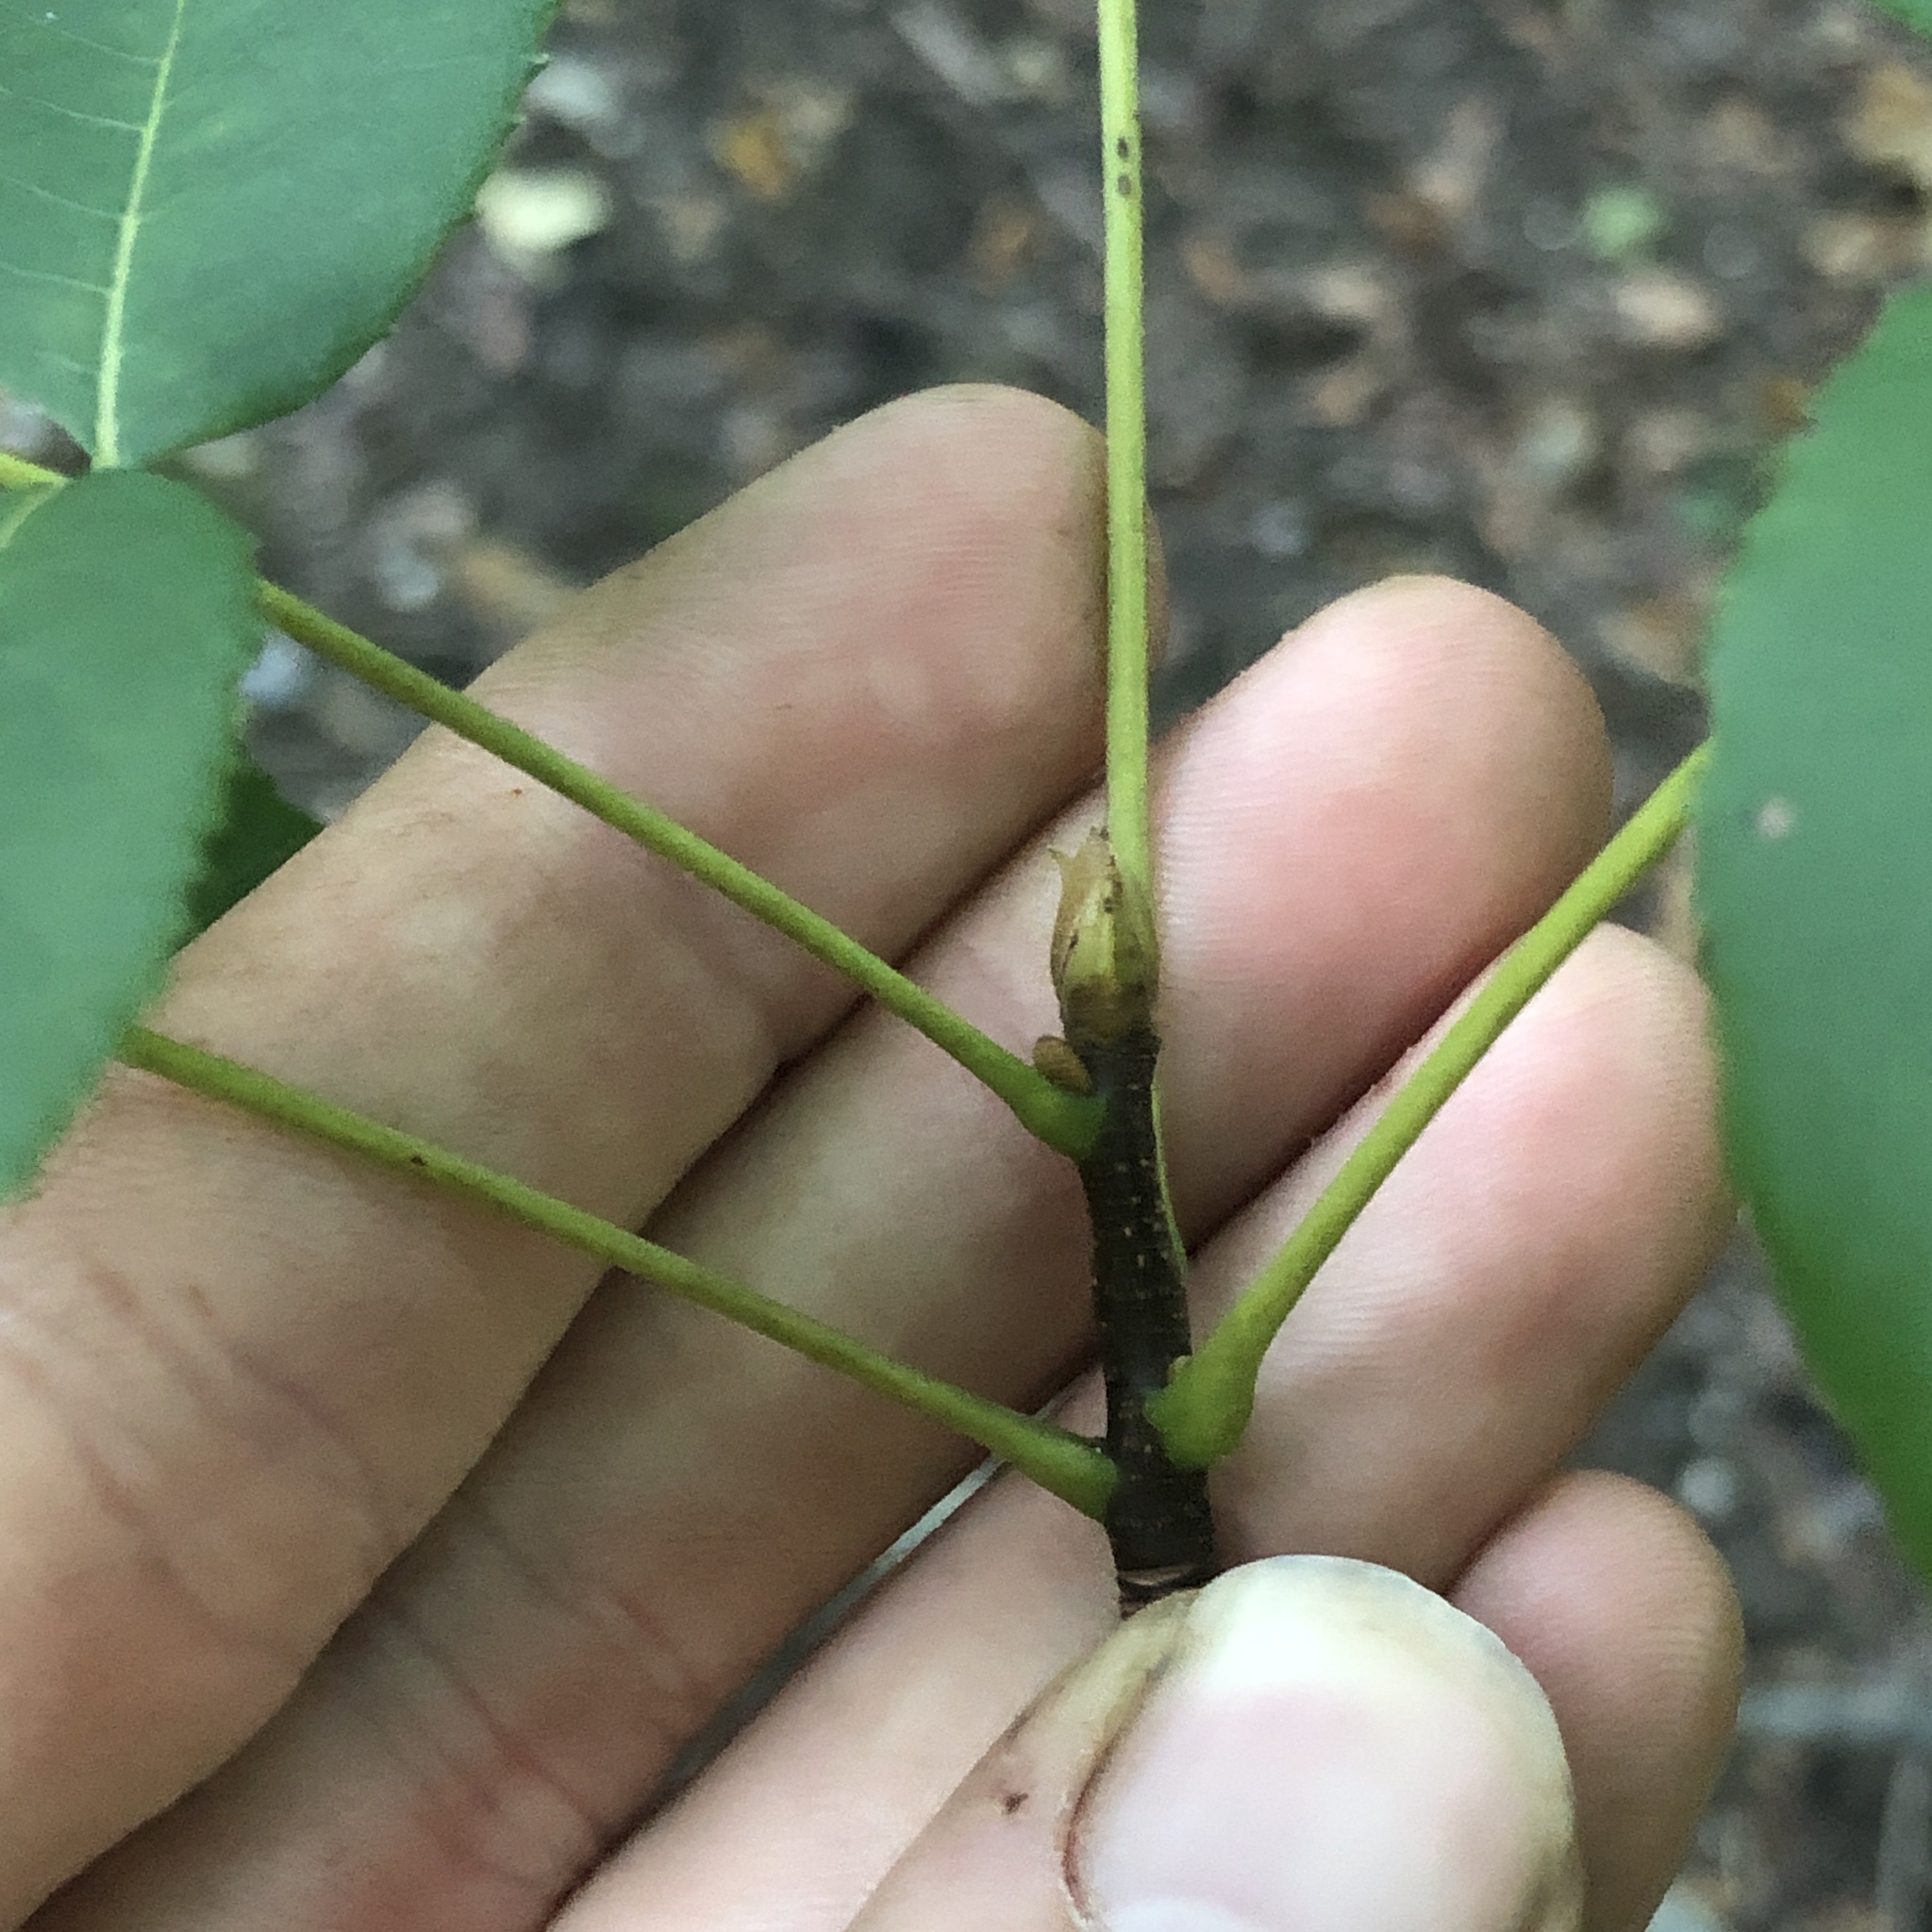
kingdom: Plantae
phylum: Tracheophyta
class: Magnoliopsida
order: Fagales
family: Juglandaceae
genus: Carya
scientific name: Carya glabra
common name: Pignut hickory
